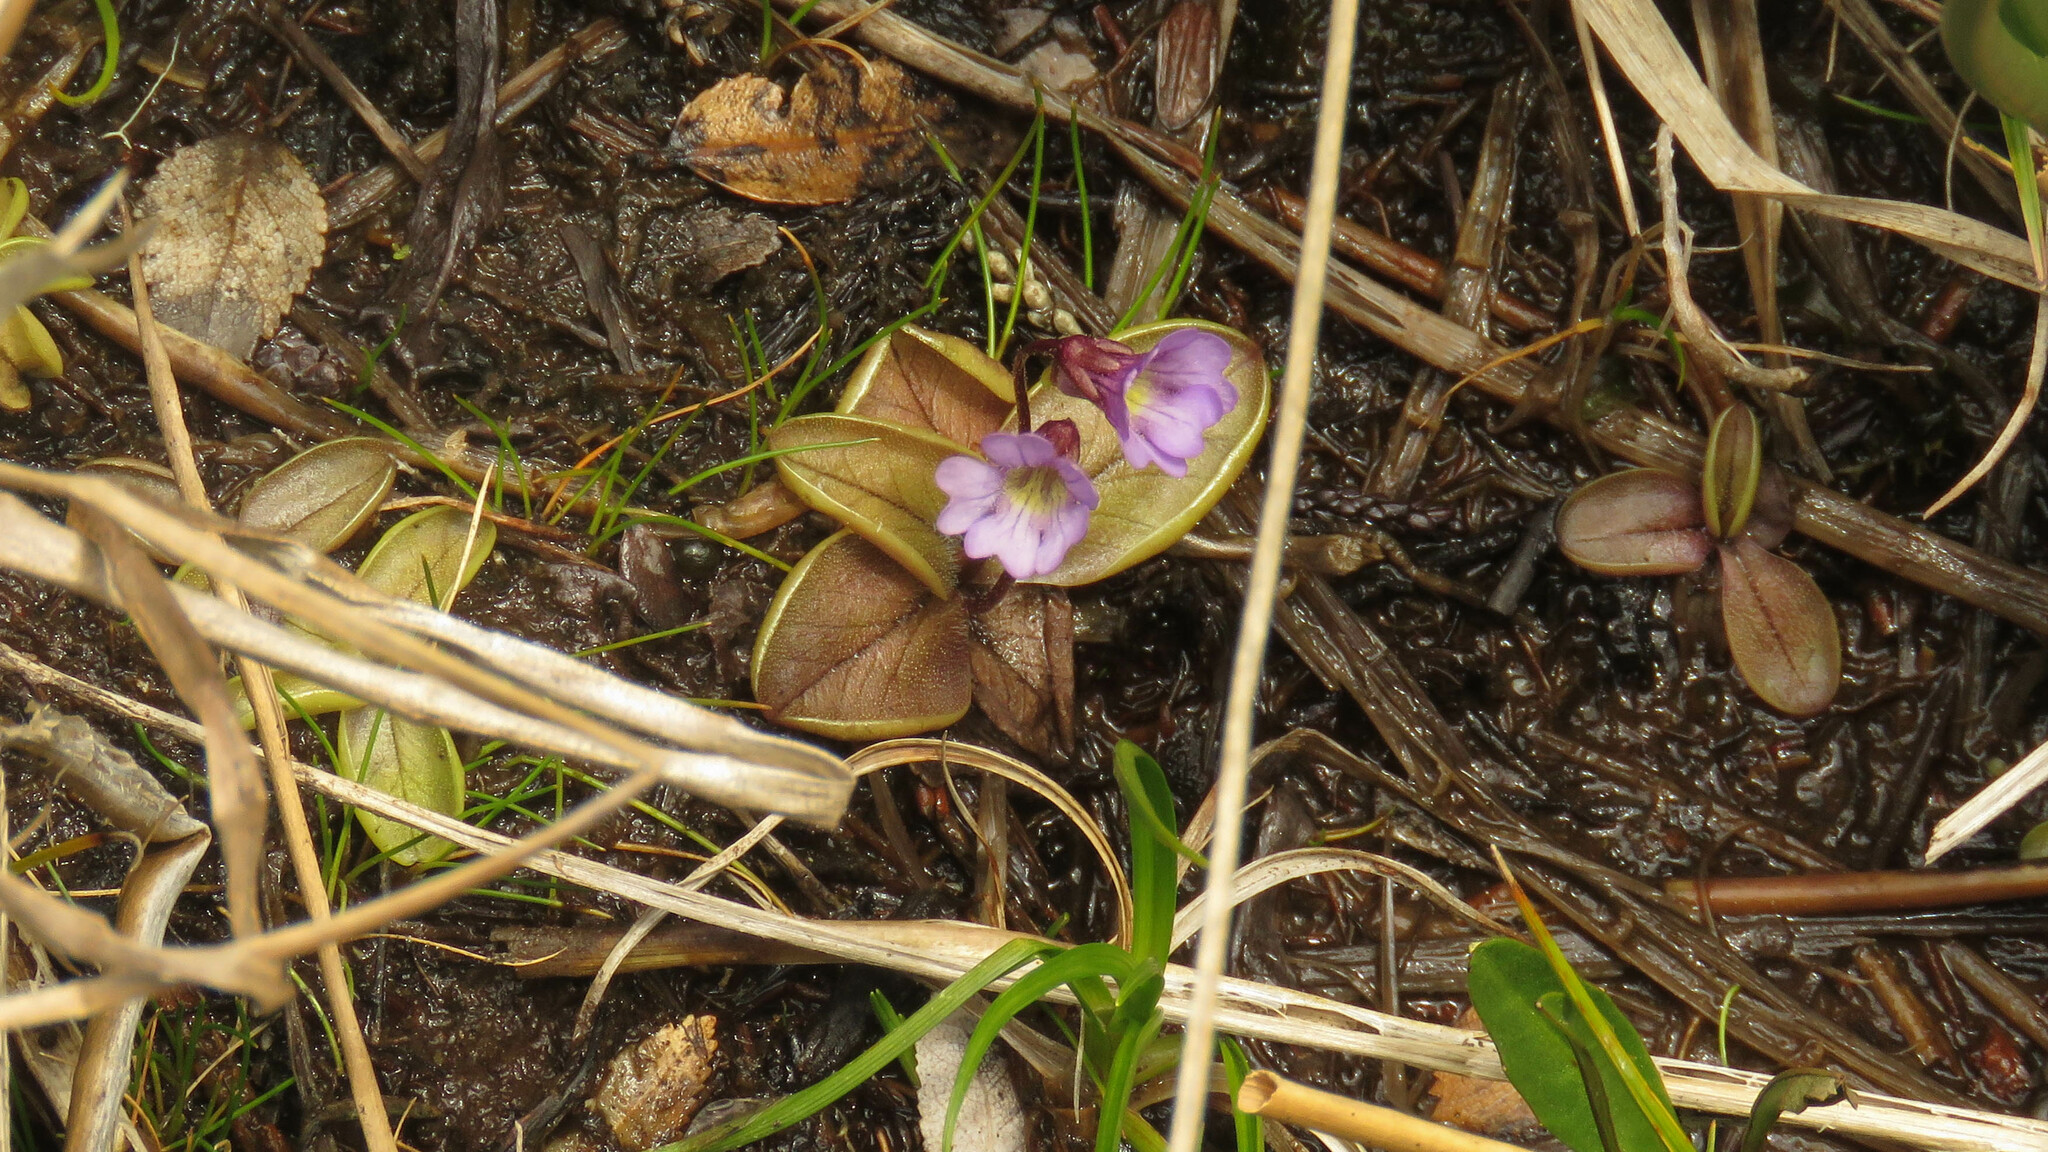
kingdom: Plantae
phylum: Tracheophyta
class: Magnoliopsida
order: Lamiales
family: Lentibulariaceae
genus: Pinguicula
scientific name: Pinguicula australandina
